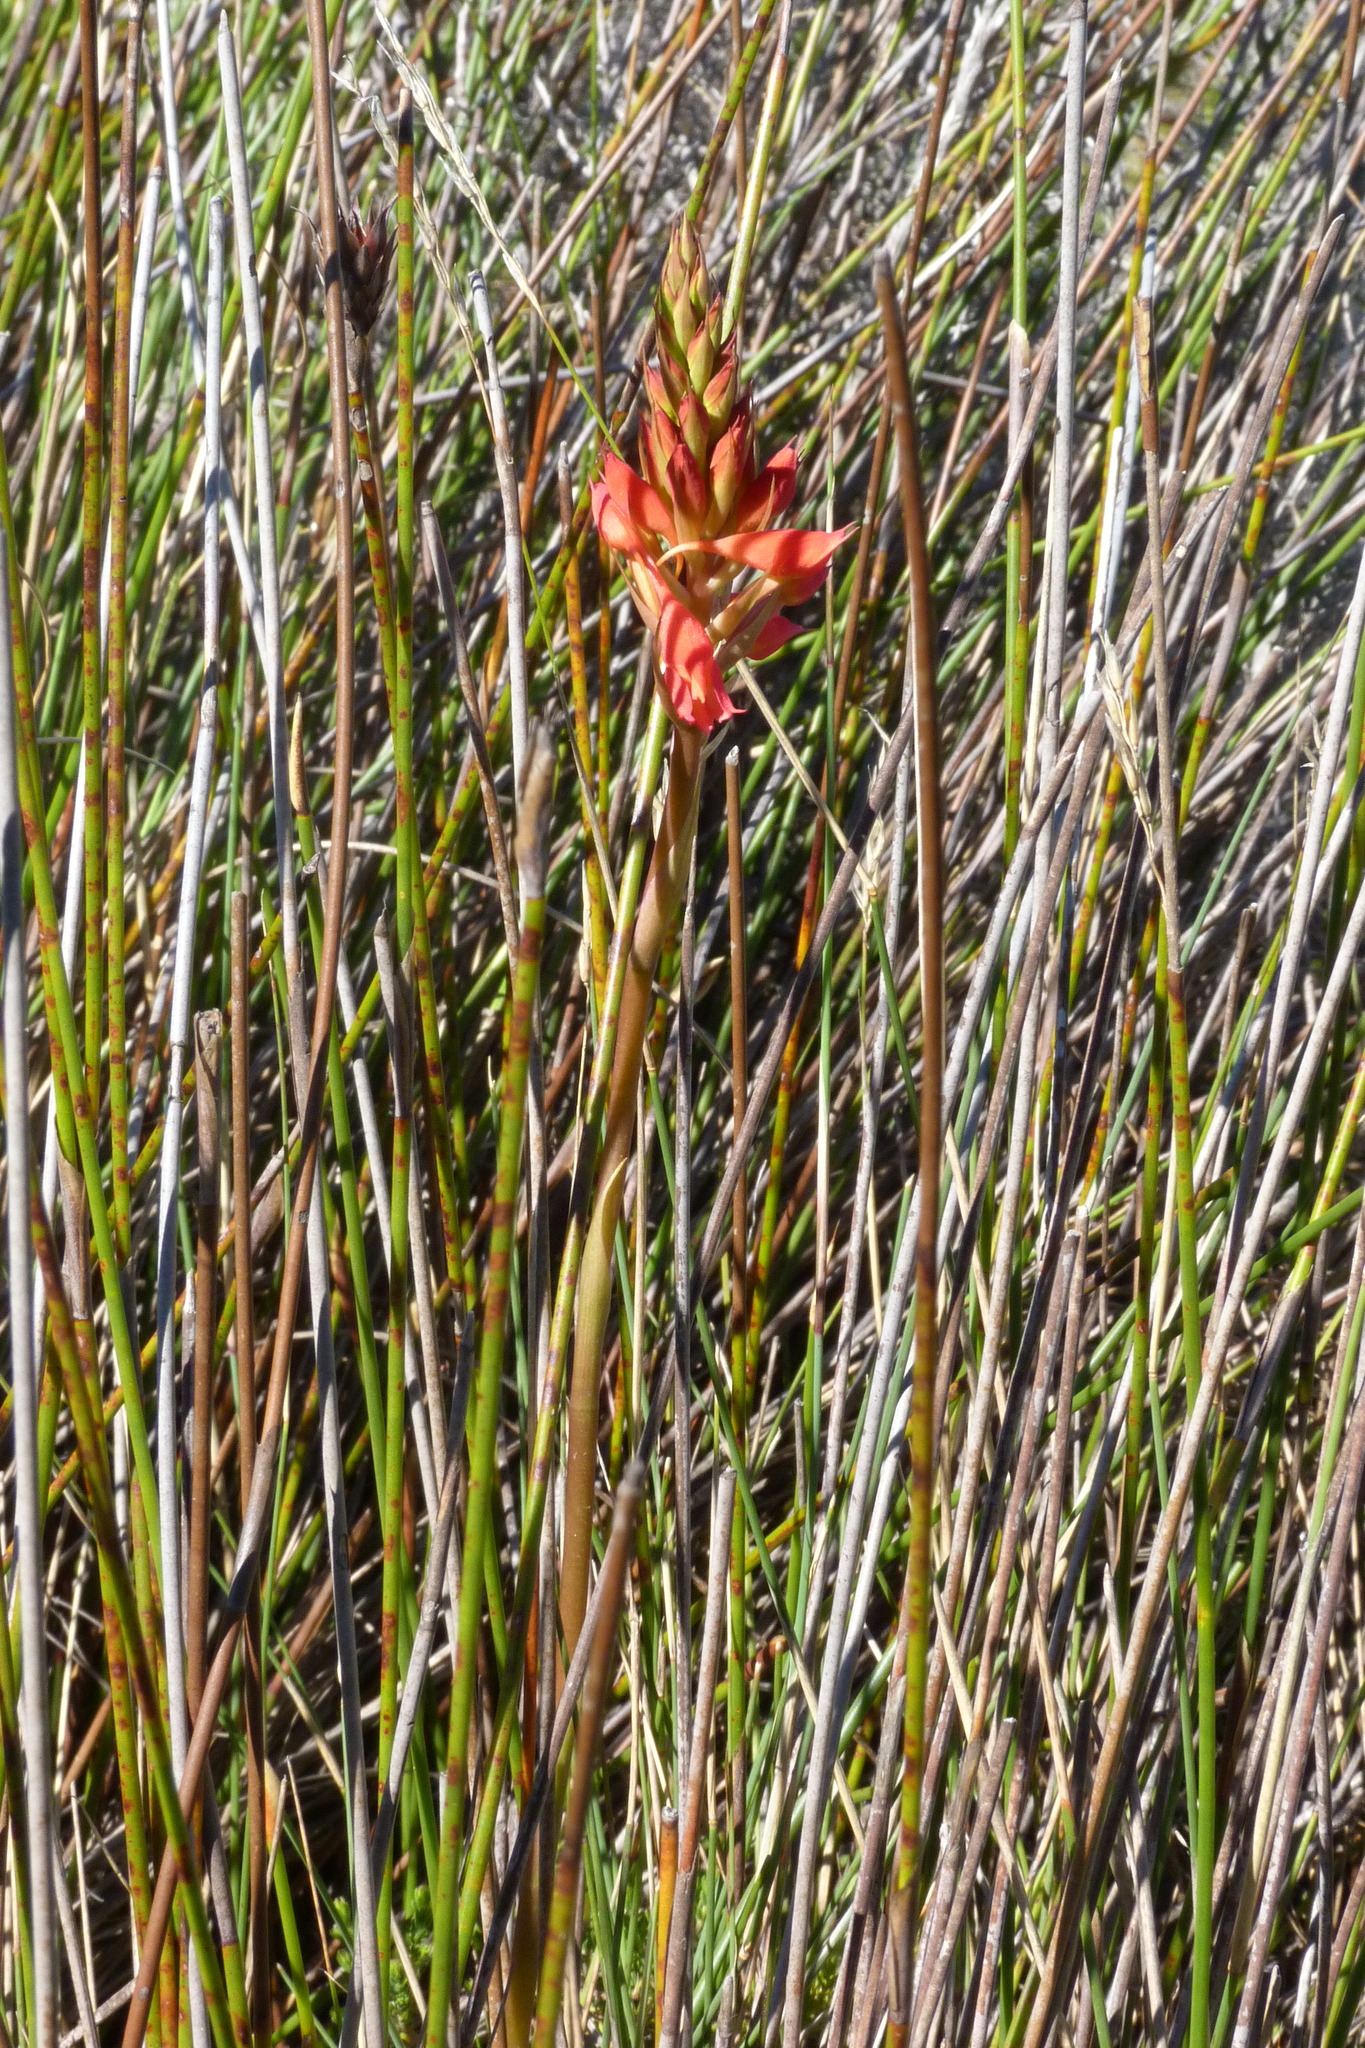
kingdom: Plantae
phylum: Tracheophyta
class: Liliopsida
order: Asparagales
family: Orchidaceae
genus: Disa
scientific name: Disa ferruginea
